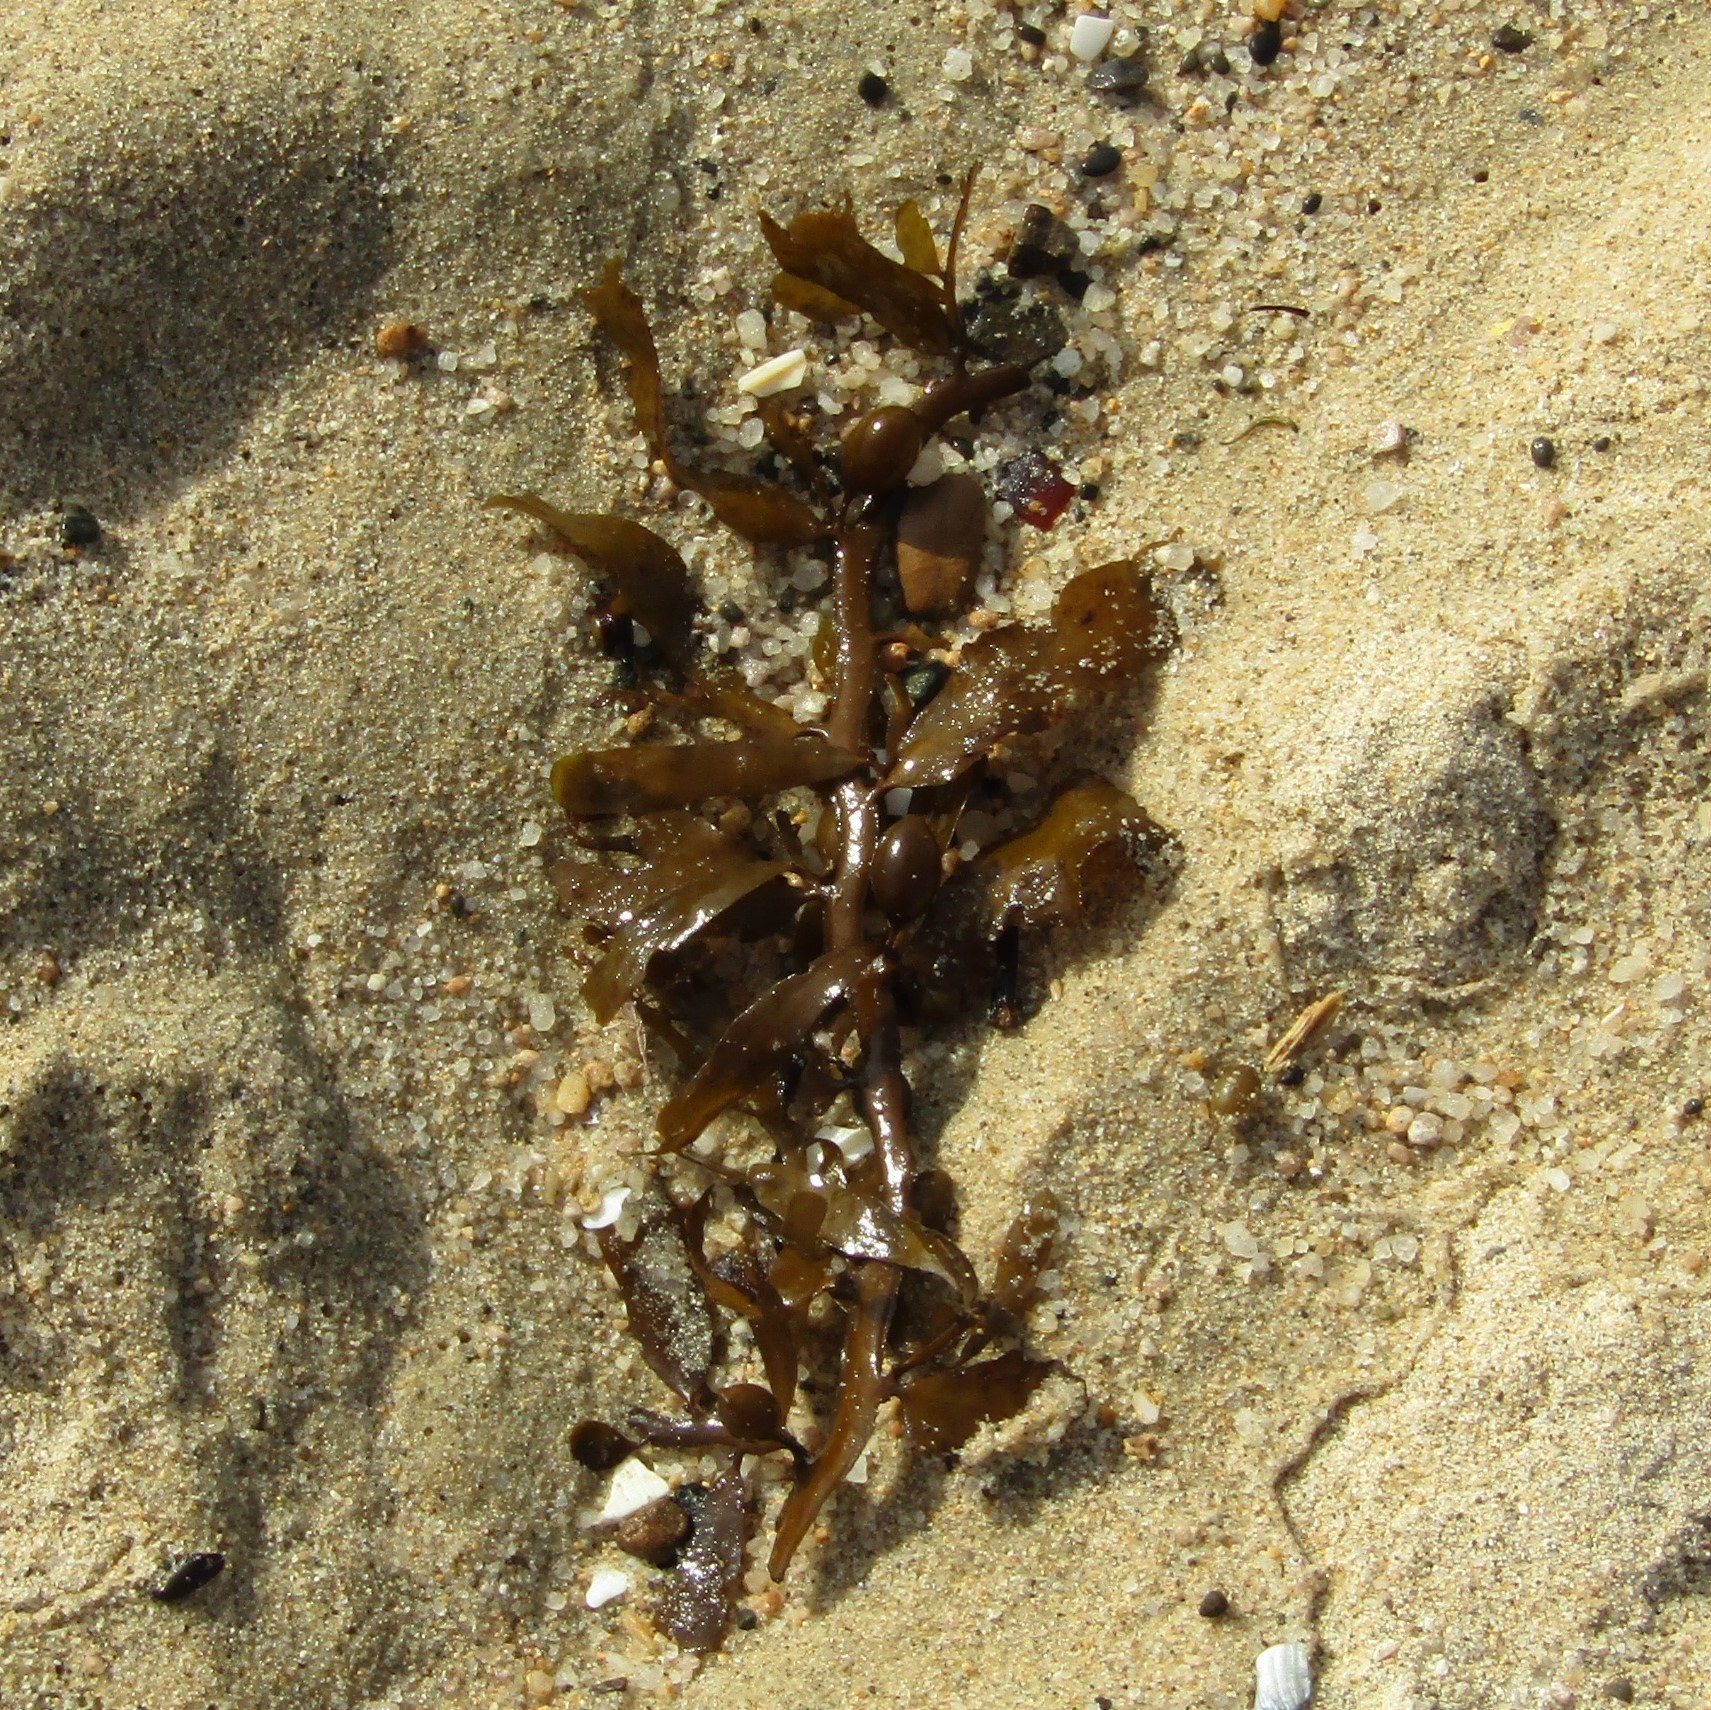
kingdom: Chromista
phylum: Ochrophyta
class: Phaeophyceae
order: Fucales
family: Sargassaceae
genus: Carpophyllum
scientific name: Carpophyllum flexuosum
